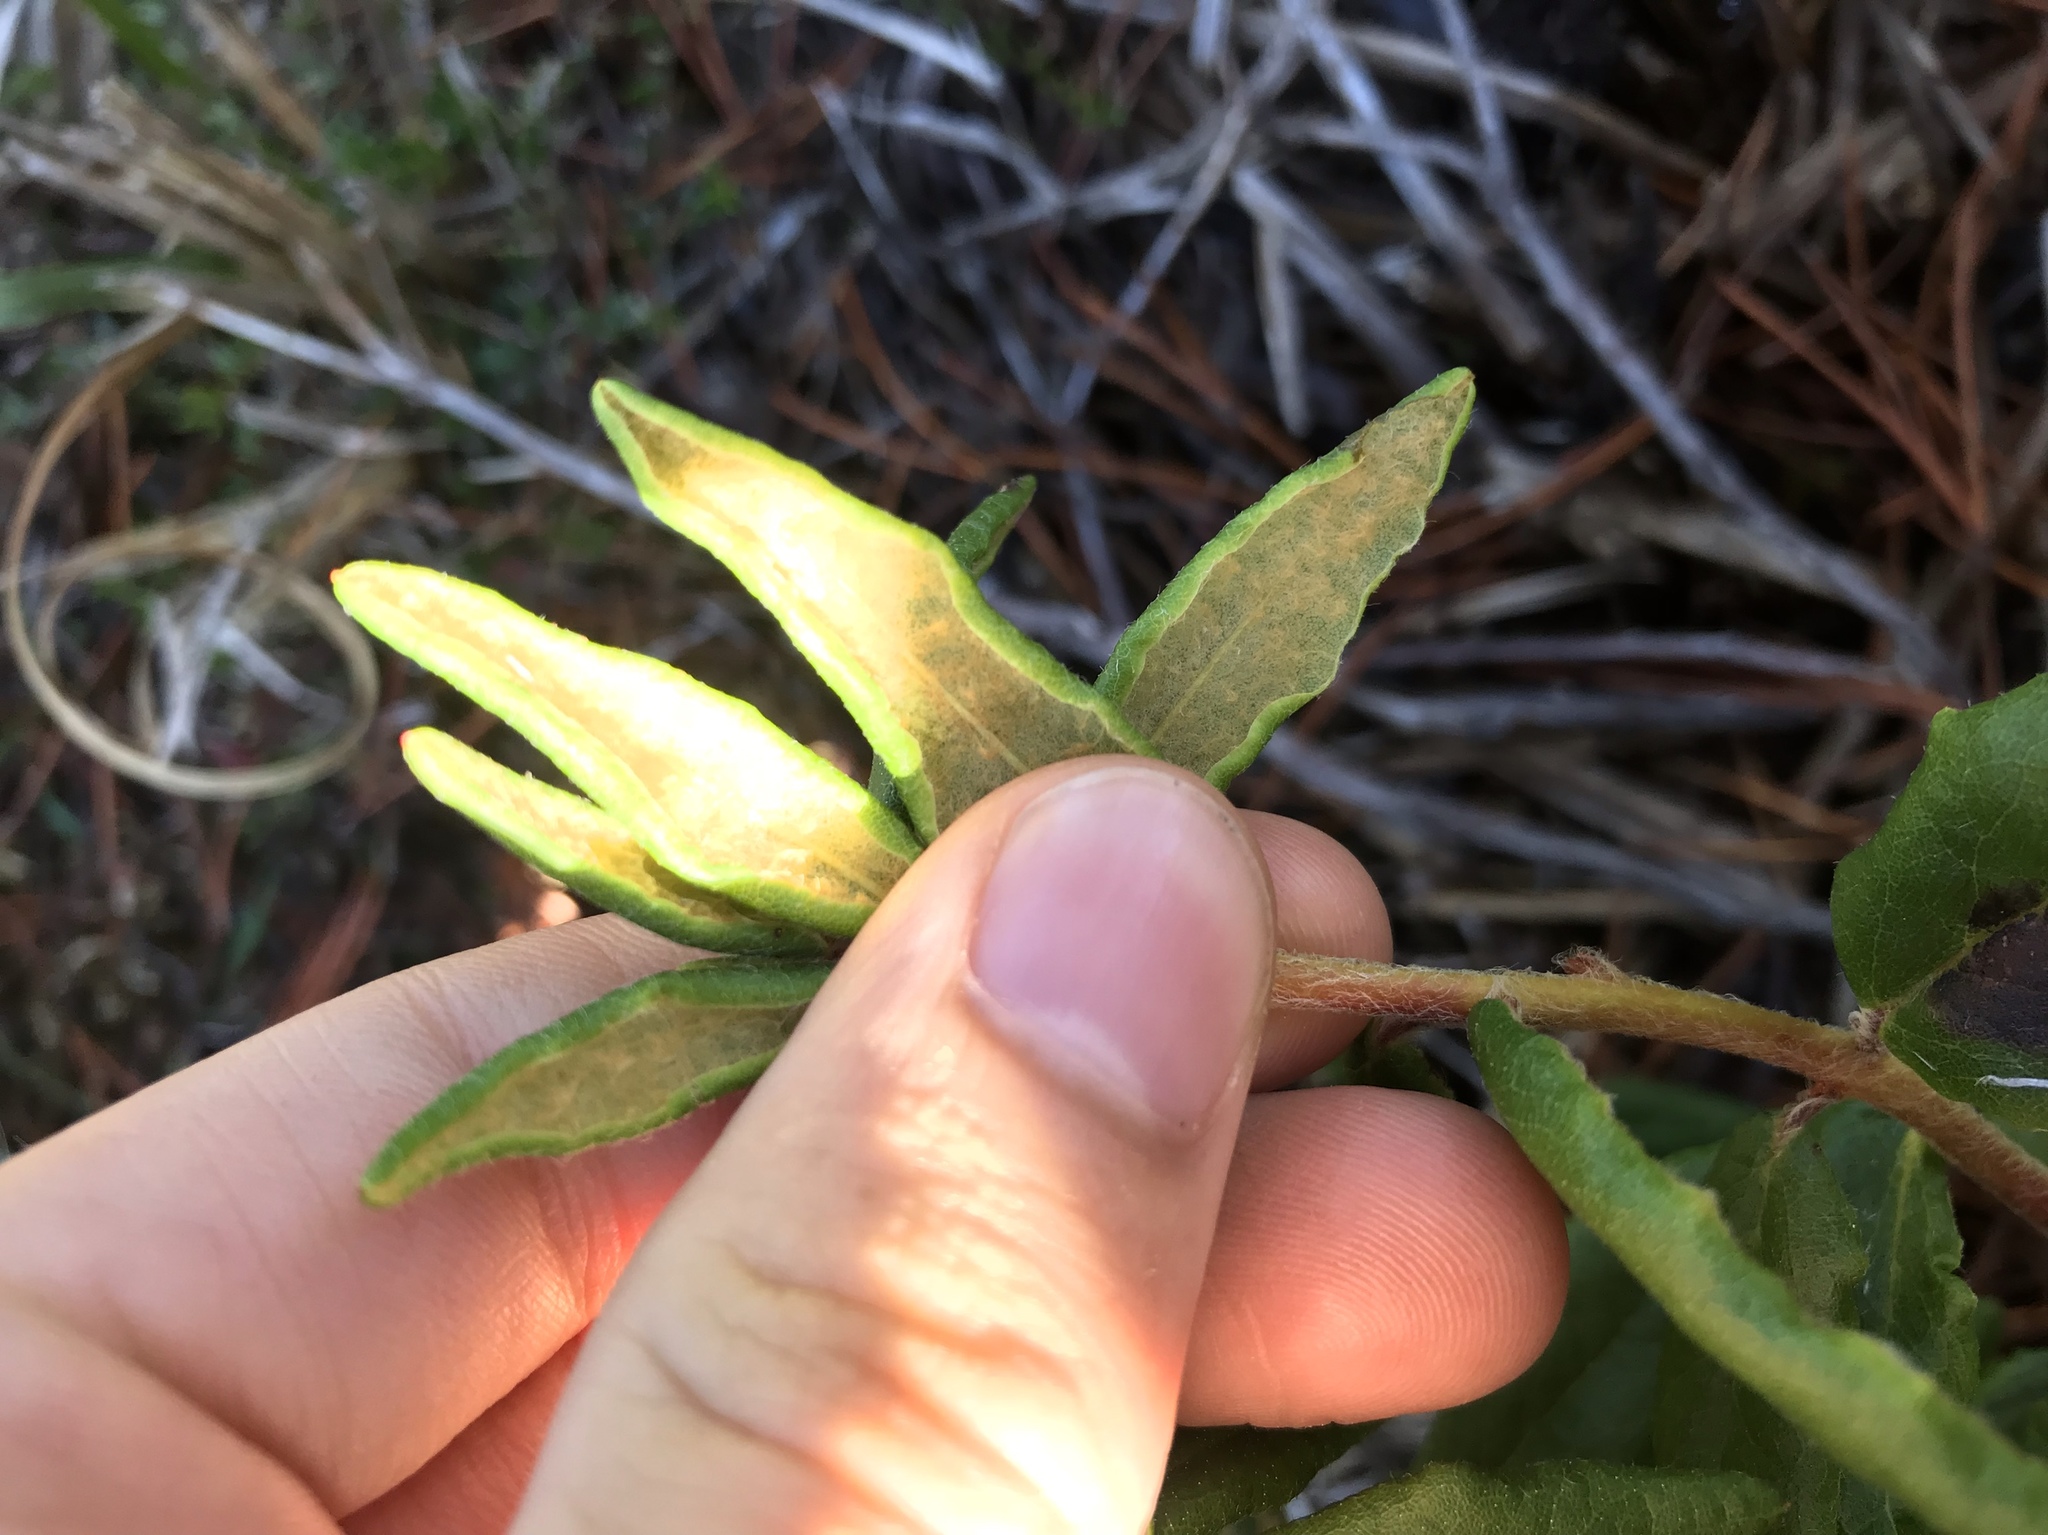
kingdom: Plantae
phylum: Tracheophyta
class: Magnoliopsida
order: Ericales
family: Ericaceae
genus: Rhododendron
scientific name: Rhododendron groenlandicum
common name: Bog labrador tea
